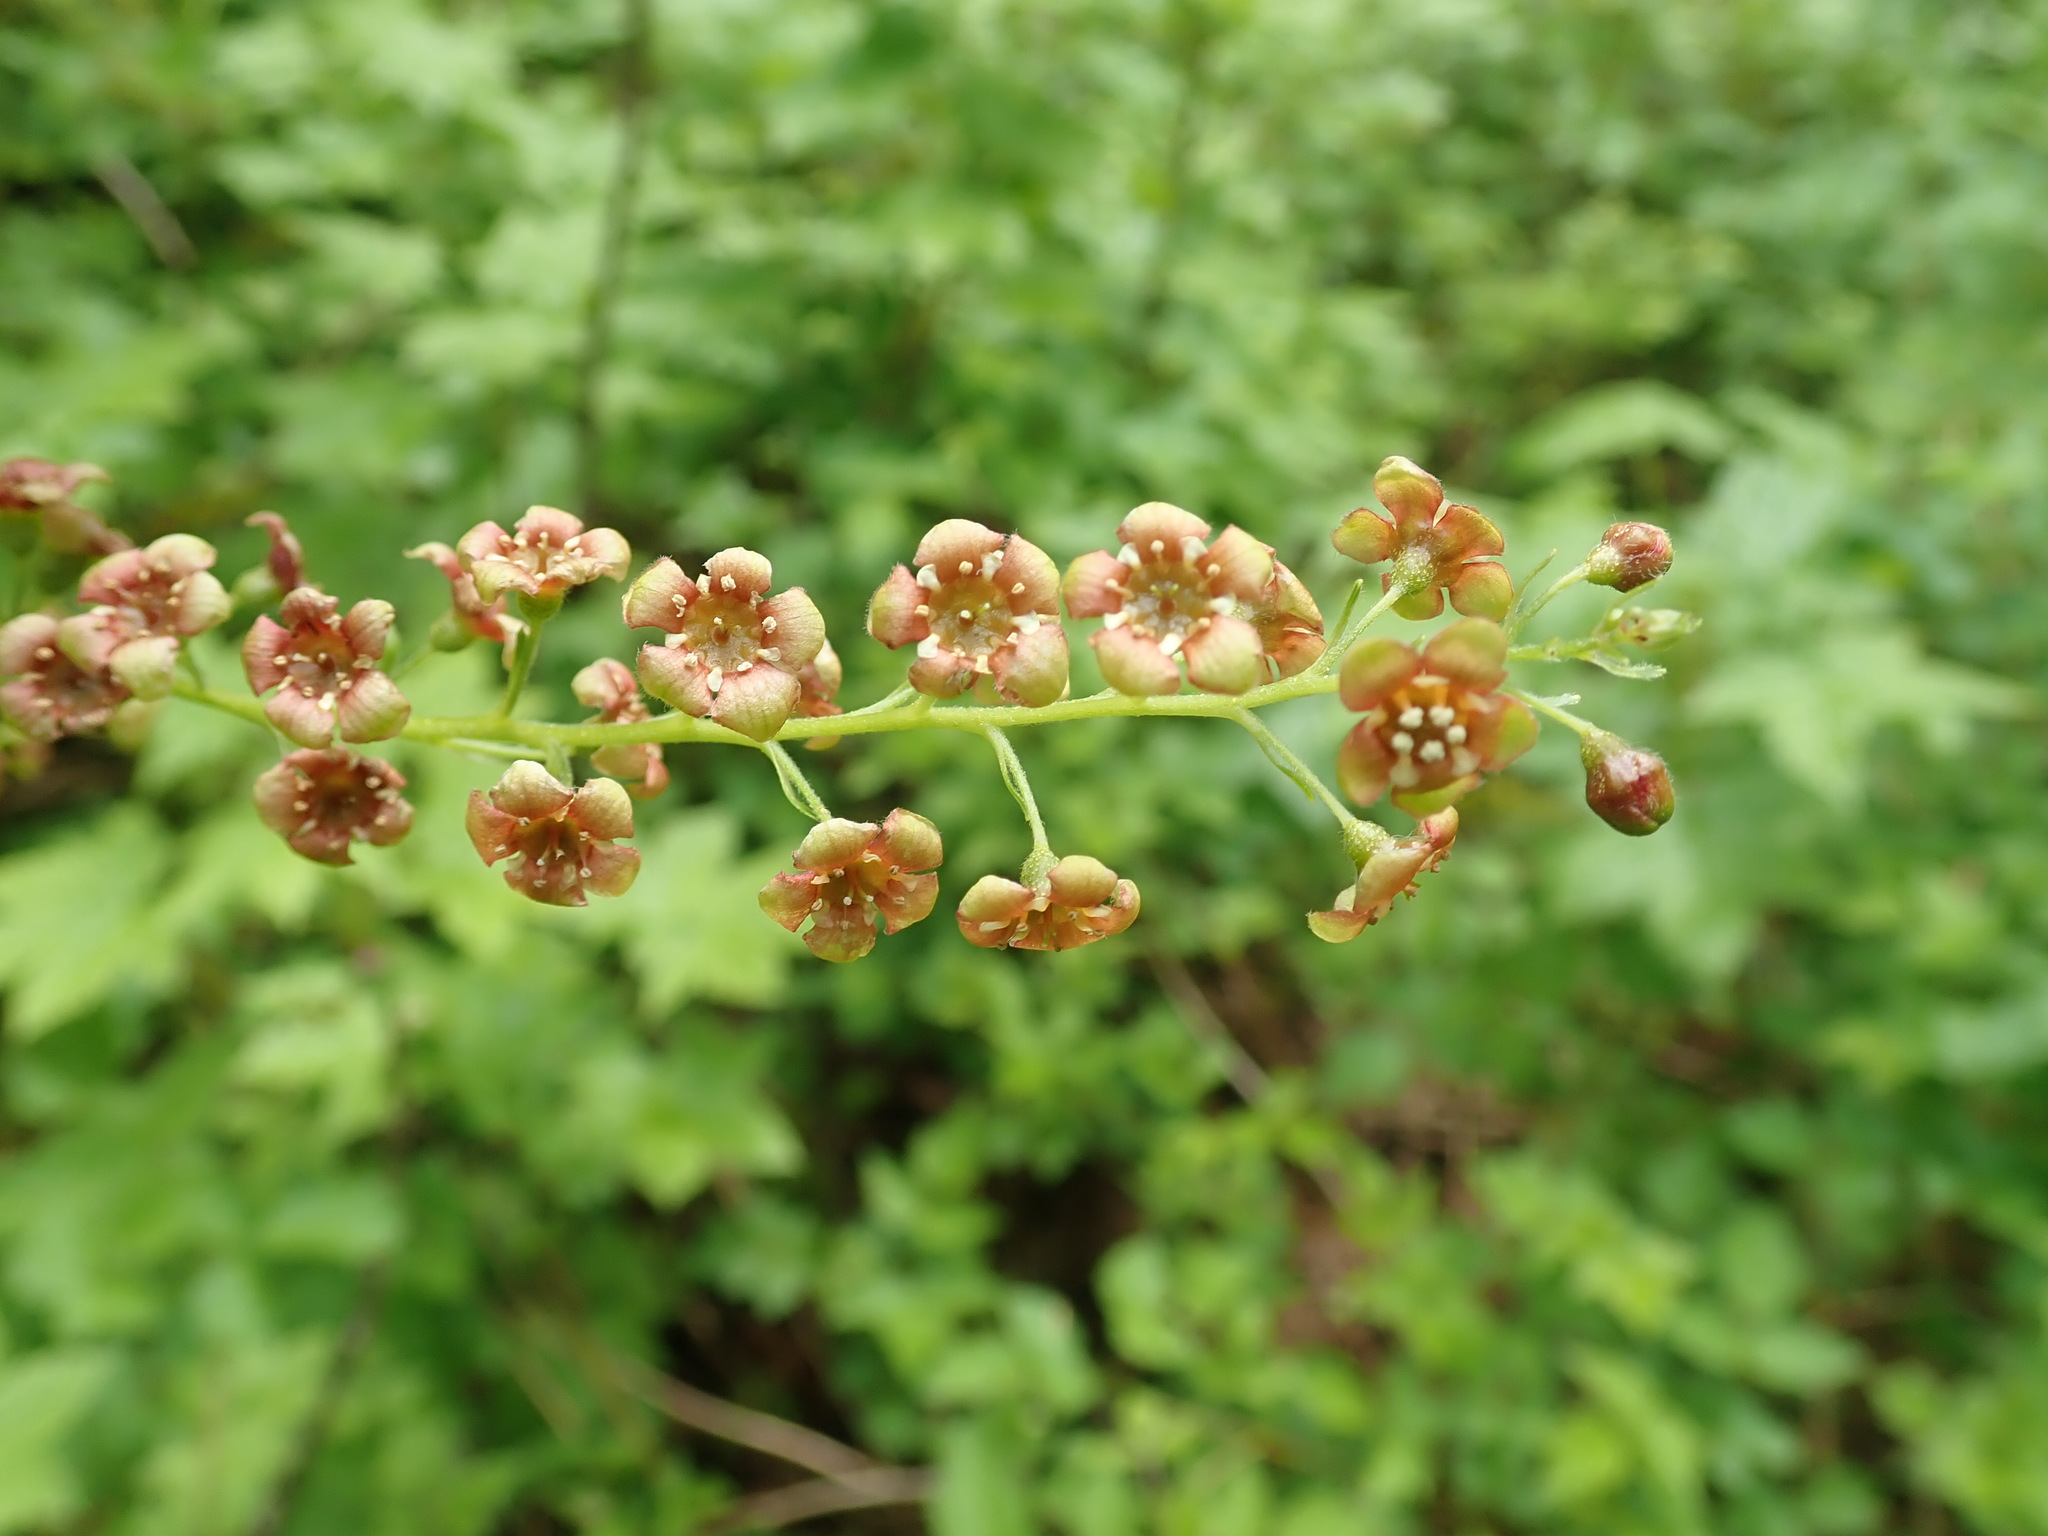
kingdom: Plantae
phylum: Tracheophyta
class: Magnoliopsida
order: Saxifragales
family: Grossulariaceae
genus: Ribes
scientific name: Ribes bracteosum
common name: California black currant
